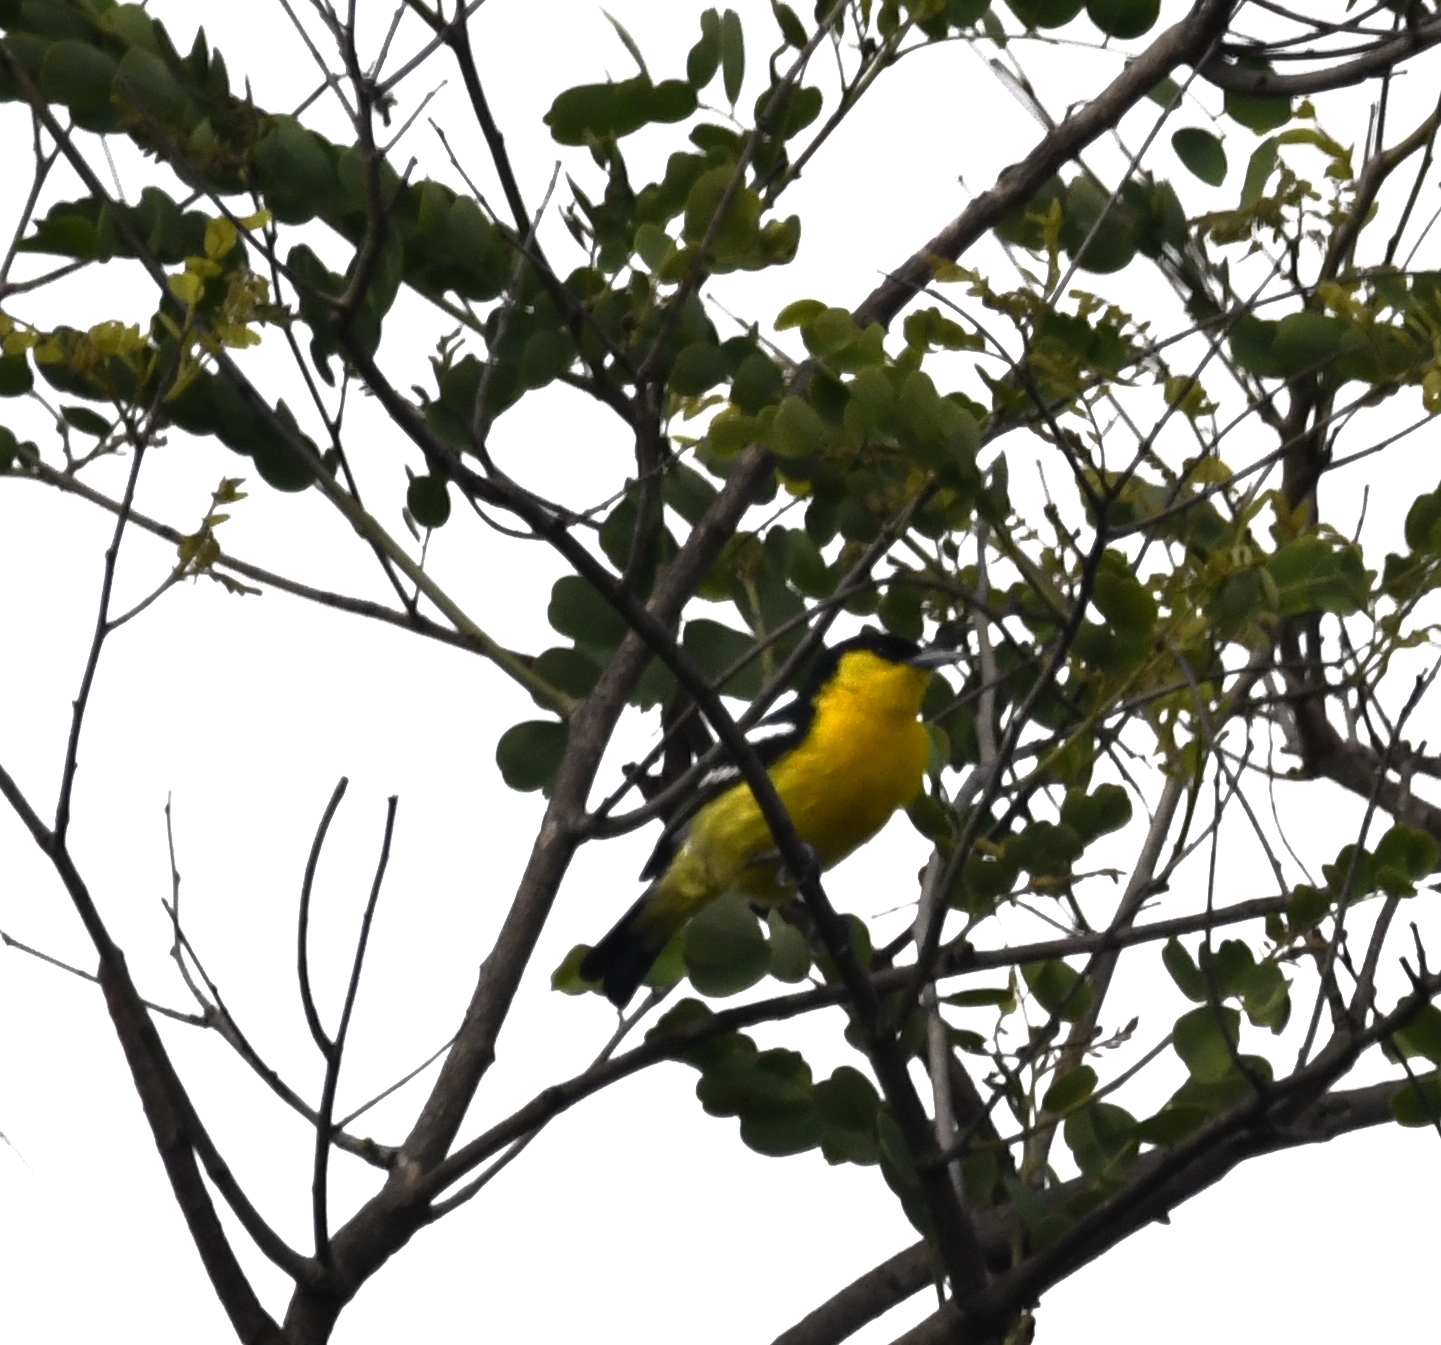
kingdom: Animalia
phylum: Chordata
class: Aves
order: Passeriformes
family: Aegithinidae
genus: Aegithina
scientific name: Aegithina tiphia
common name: Common iora
